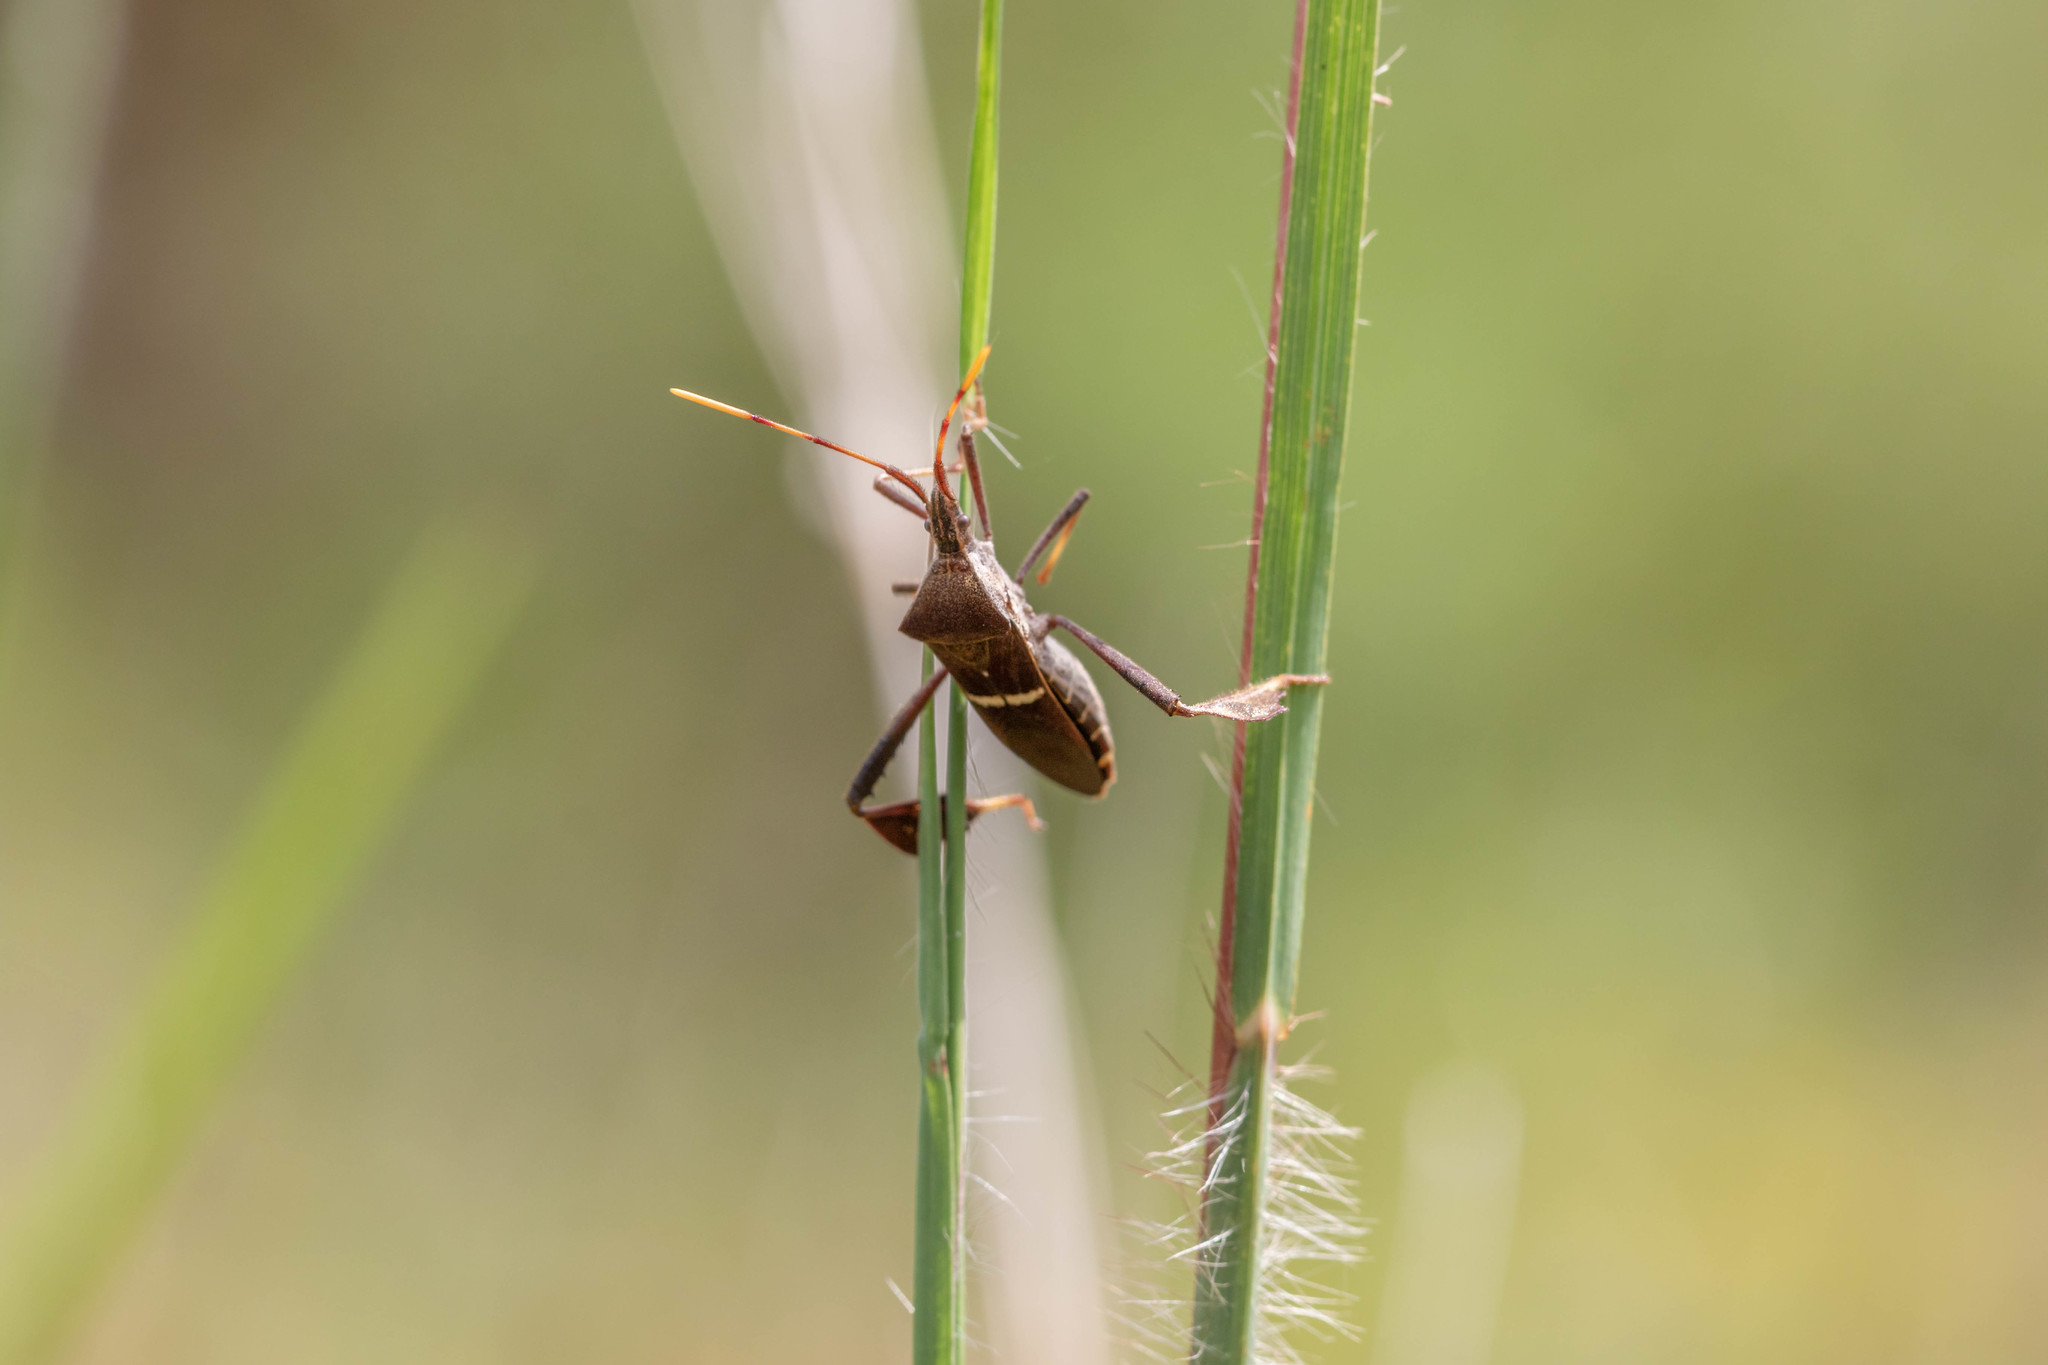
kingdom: Animalia
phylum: Arthropoda
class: Insecta
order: Hemiptera
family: Coreidae
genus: Leptoglossus
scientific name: Leptoglossus phyllopus
